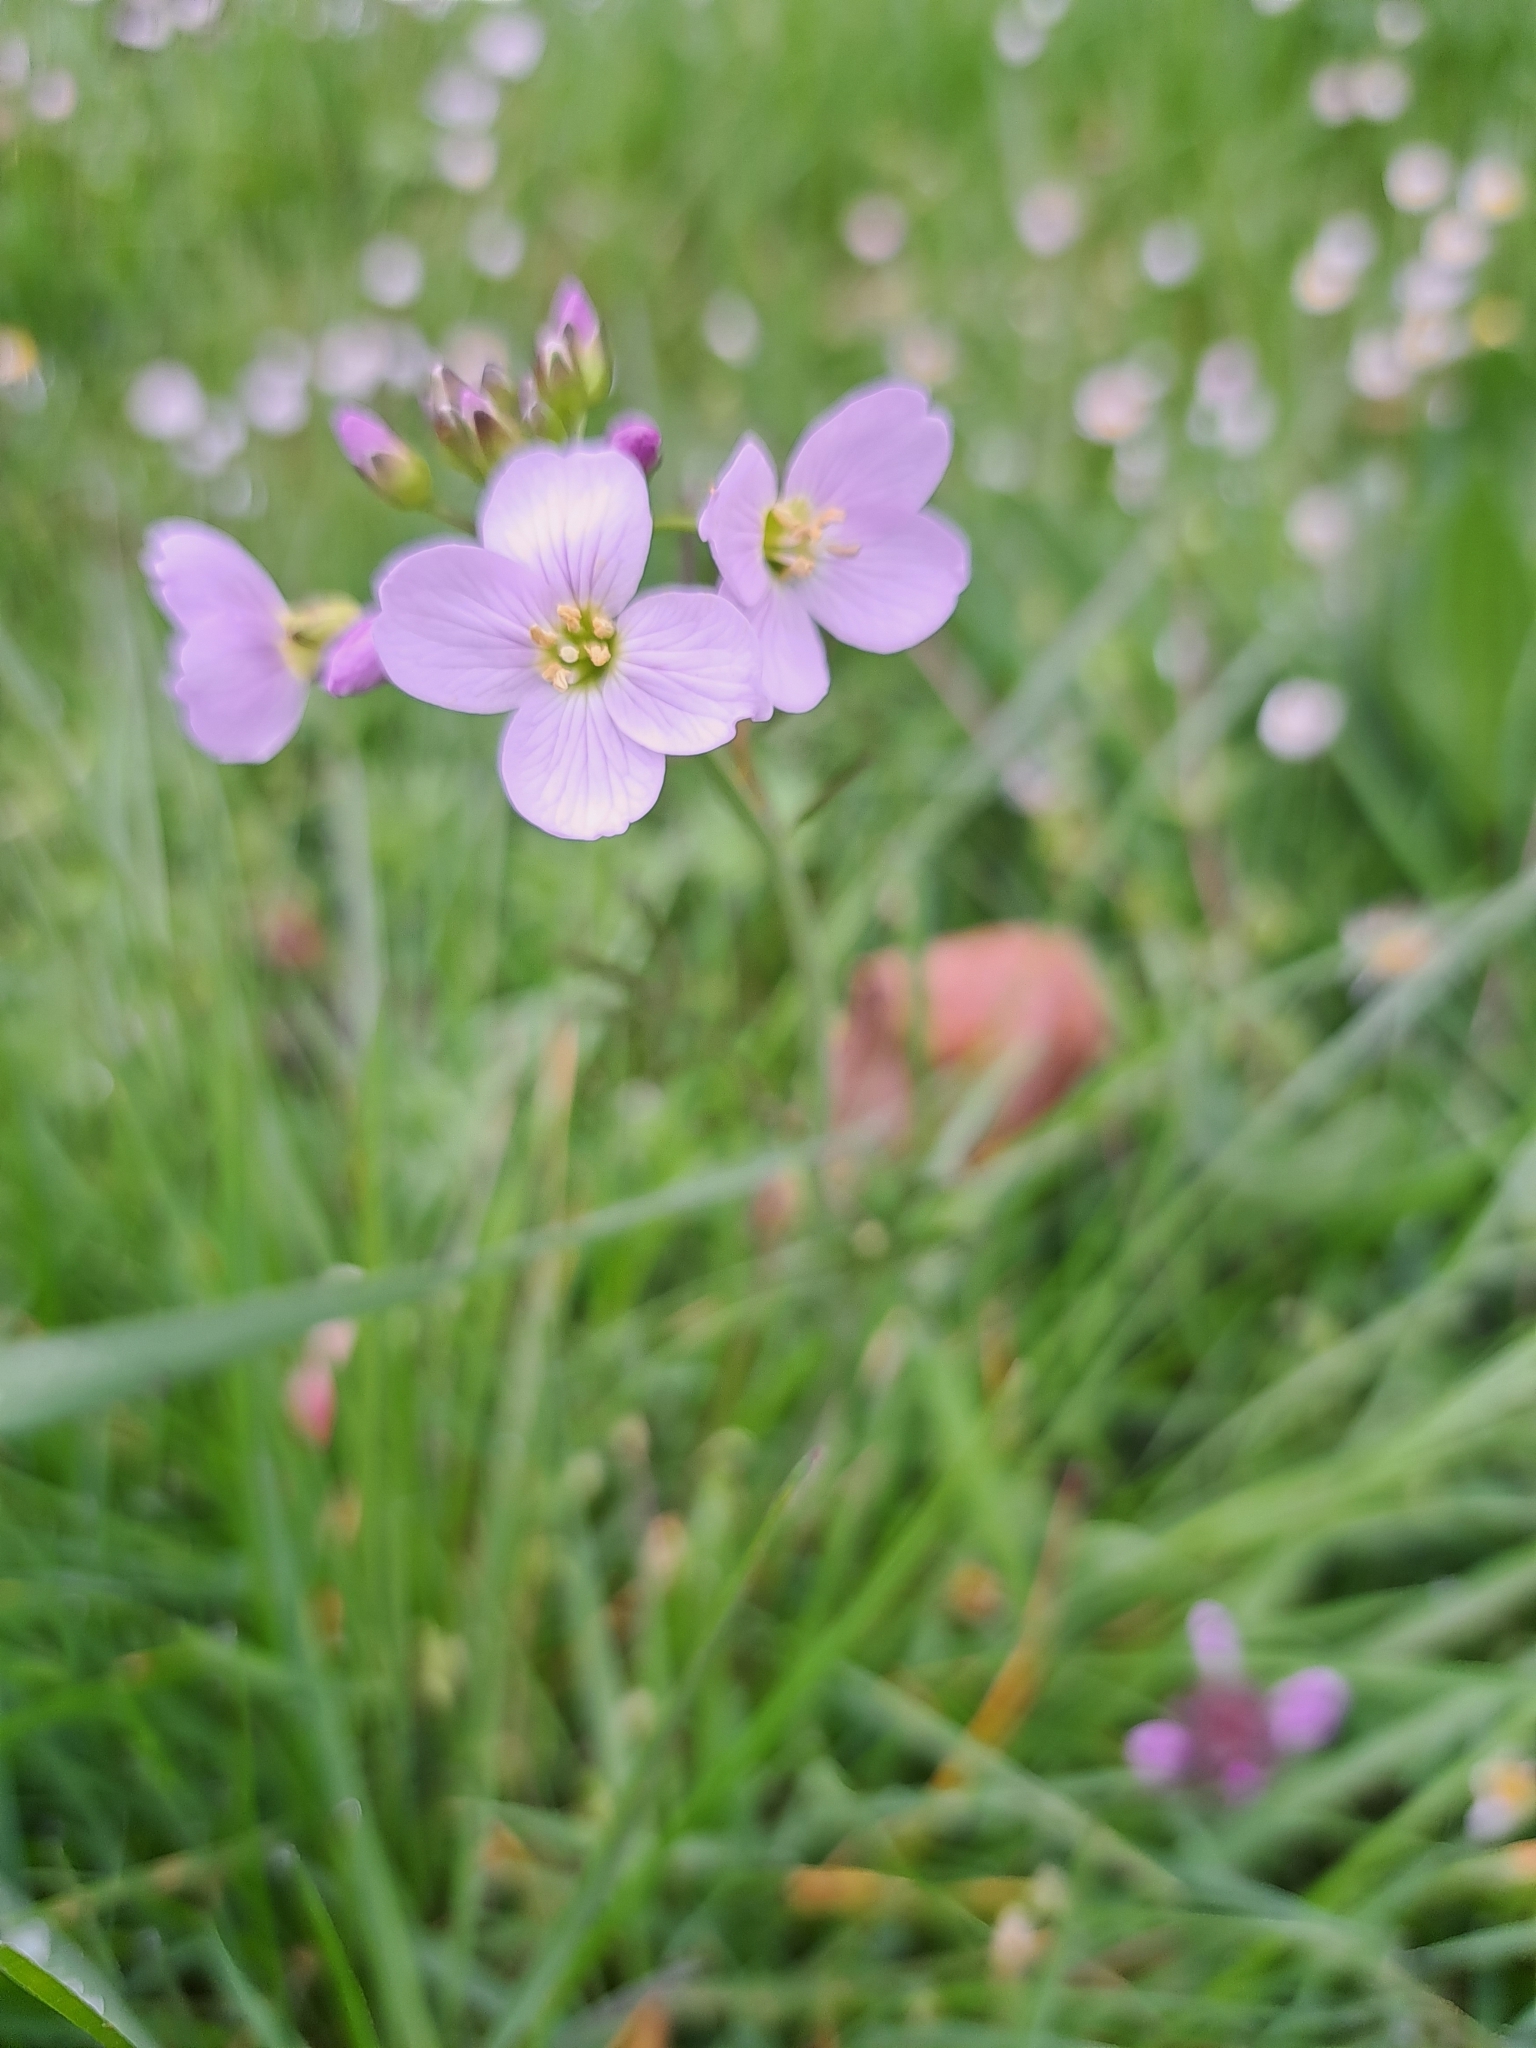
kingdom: Plantae
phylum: Tracheophyta
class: Magnoliopsida
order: Brassicales
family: Brassicaceae
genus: Cardamine
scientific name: Cardamine pratensis
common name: Cuckoo flower
